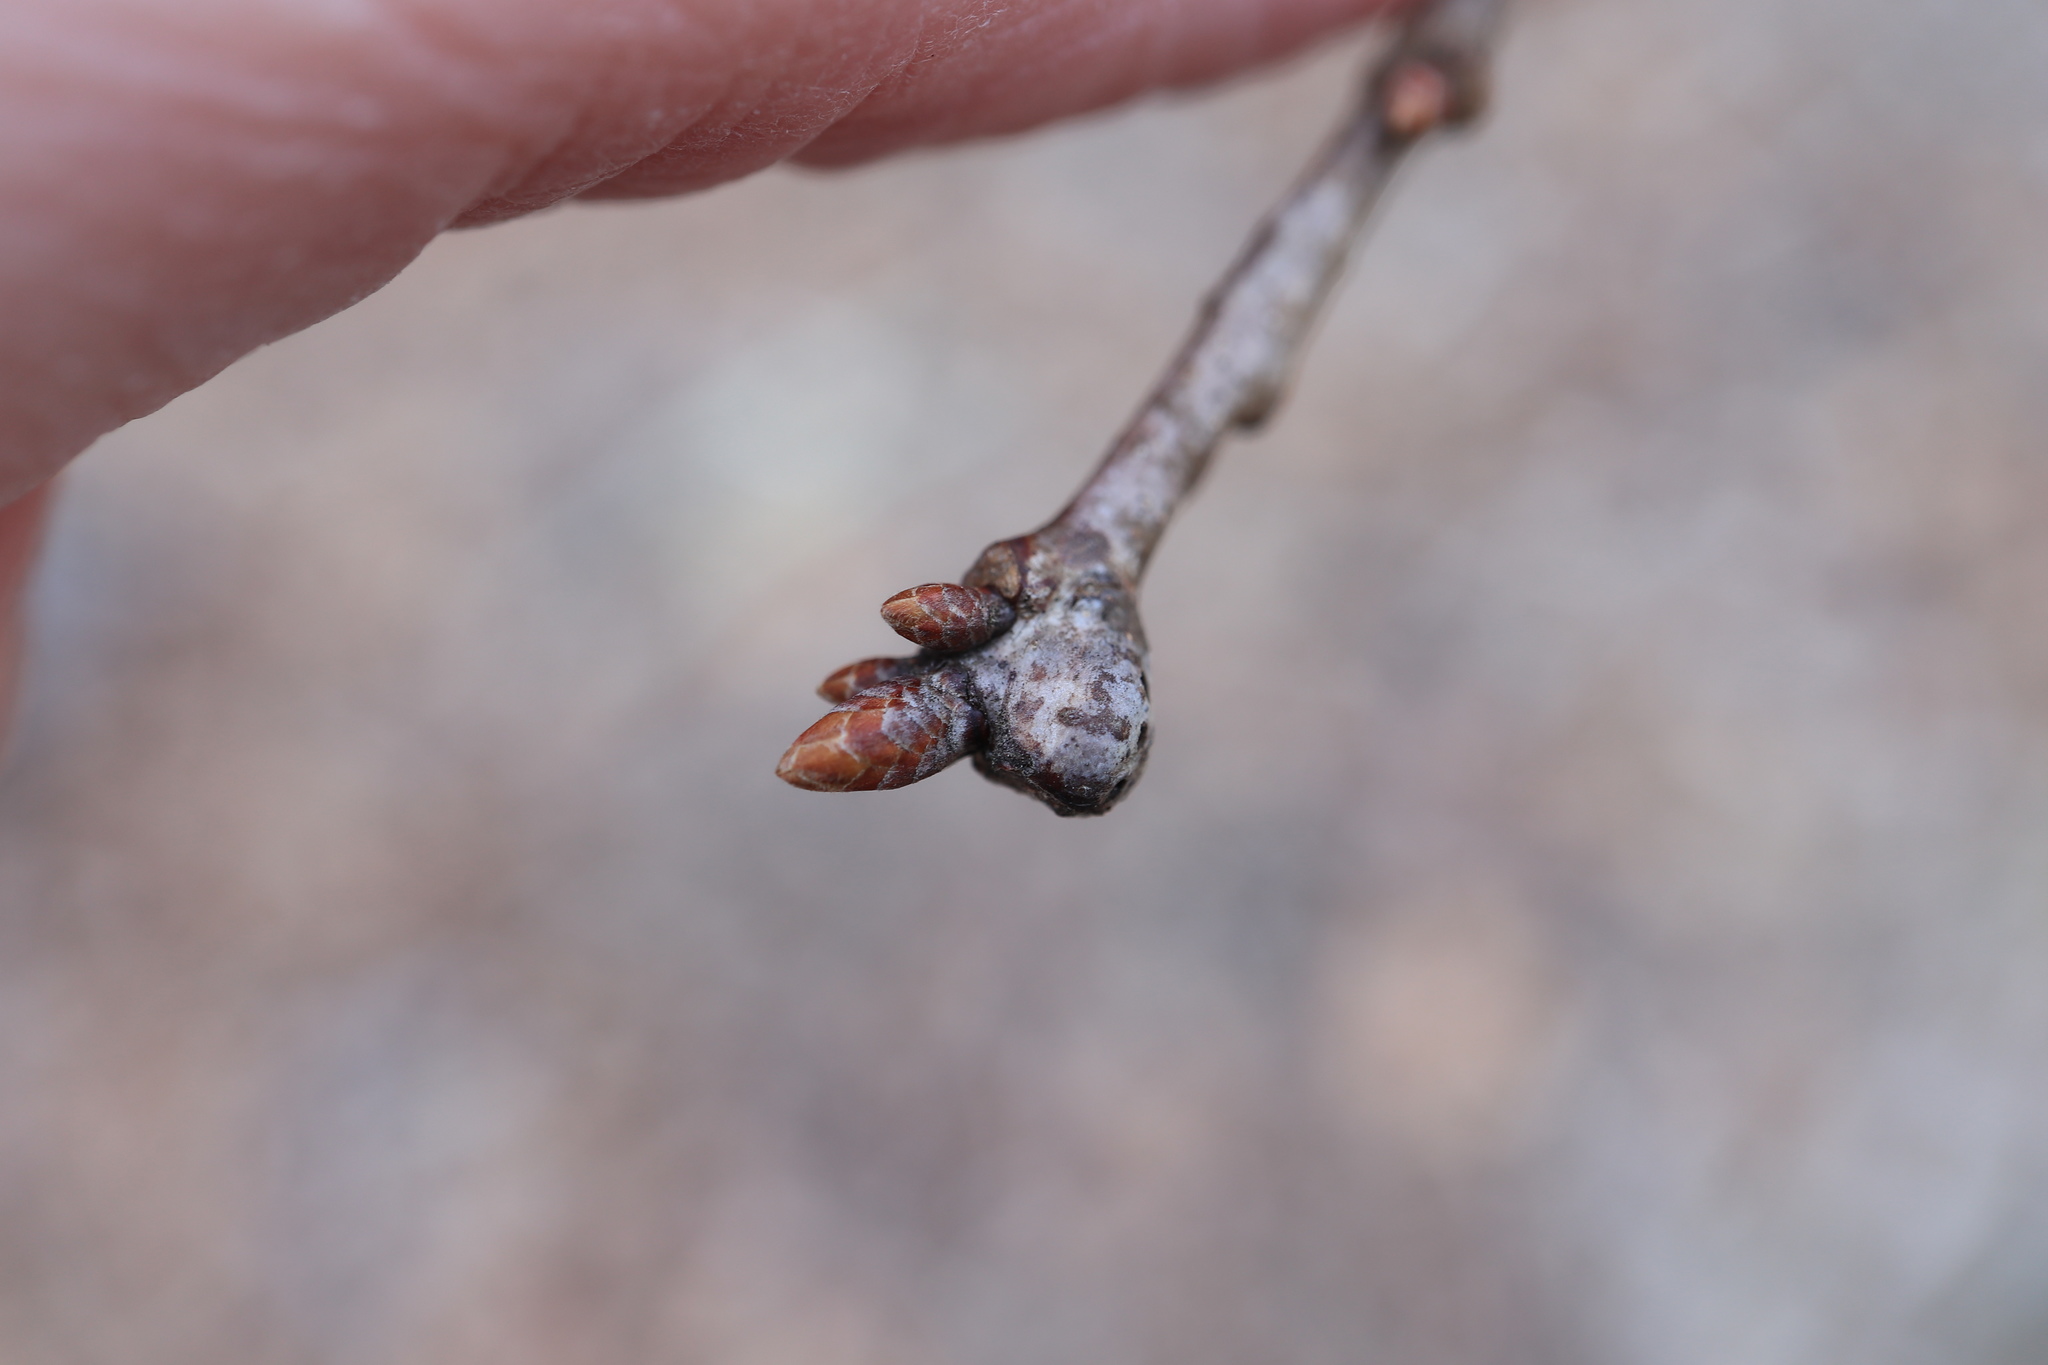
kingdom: Animalia
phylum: Arthropoda
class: Insecta
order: Hymenoptera
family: Cynipidae
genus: Callirhytis
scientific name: Callirhytis clavula
